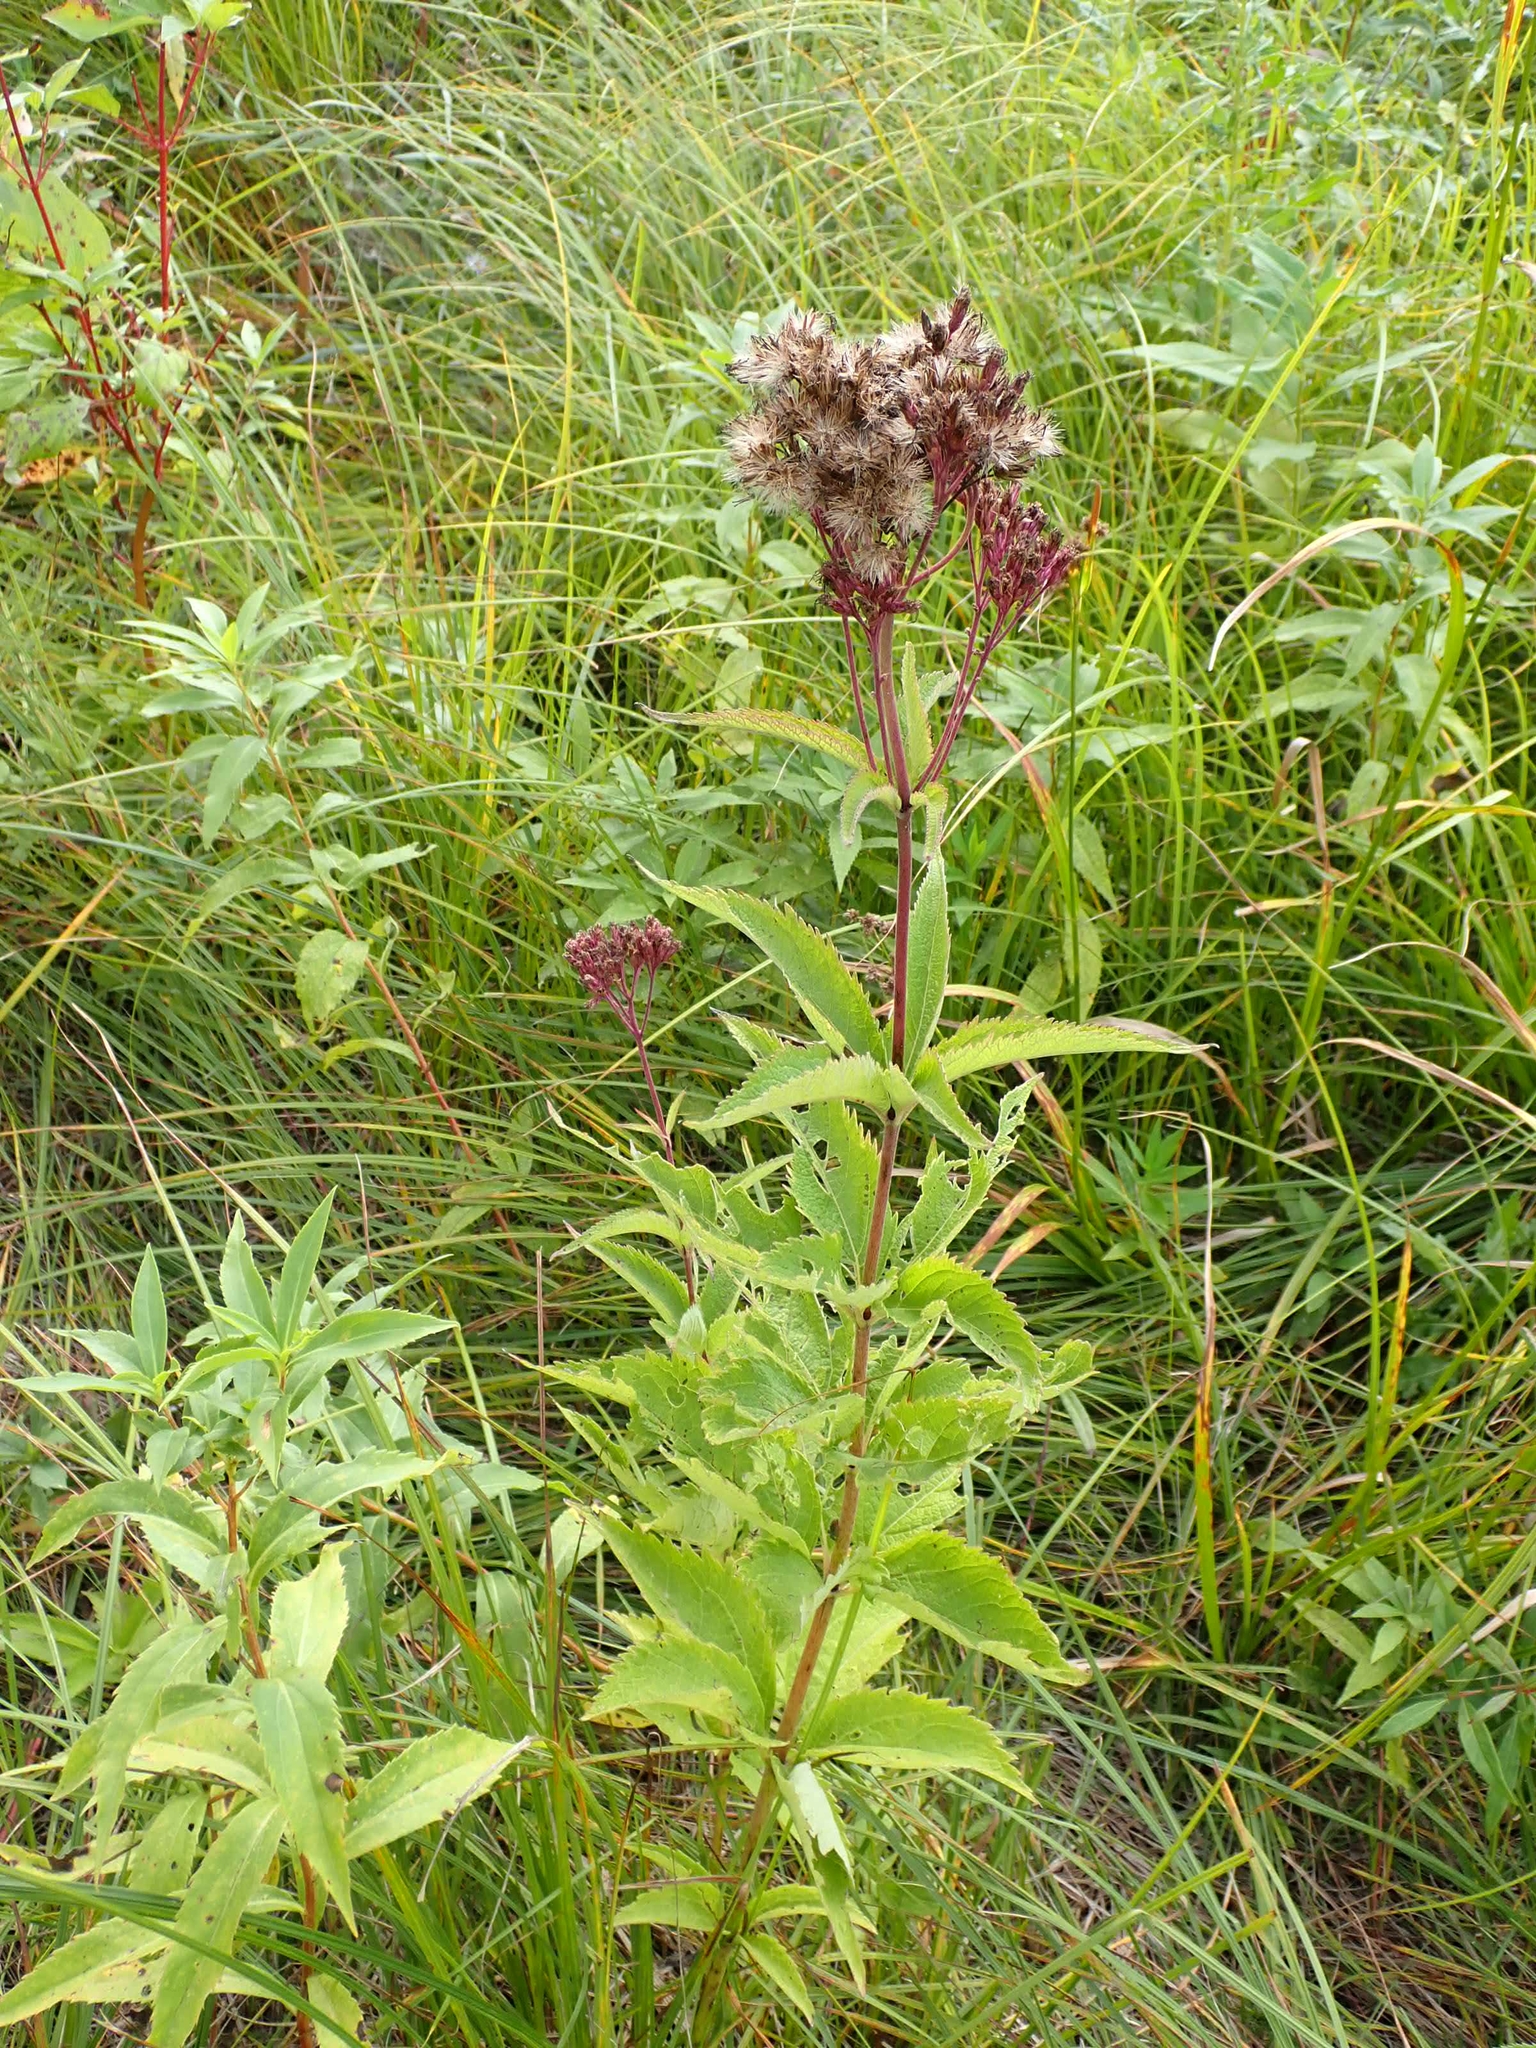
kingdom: Plantae
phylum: Tracheophyta
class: Magnoliopsida
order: Asterales
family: Asteraceae
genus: Eutrochium
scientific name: Eutrochium maculatum
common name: Spotted joe pye weed
